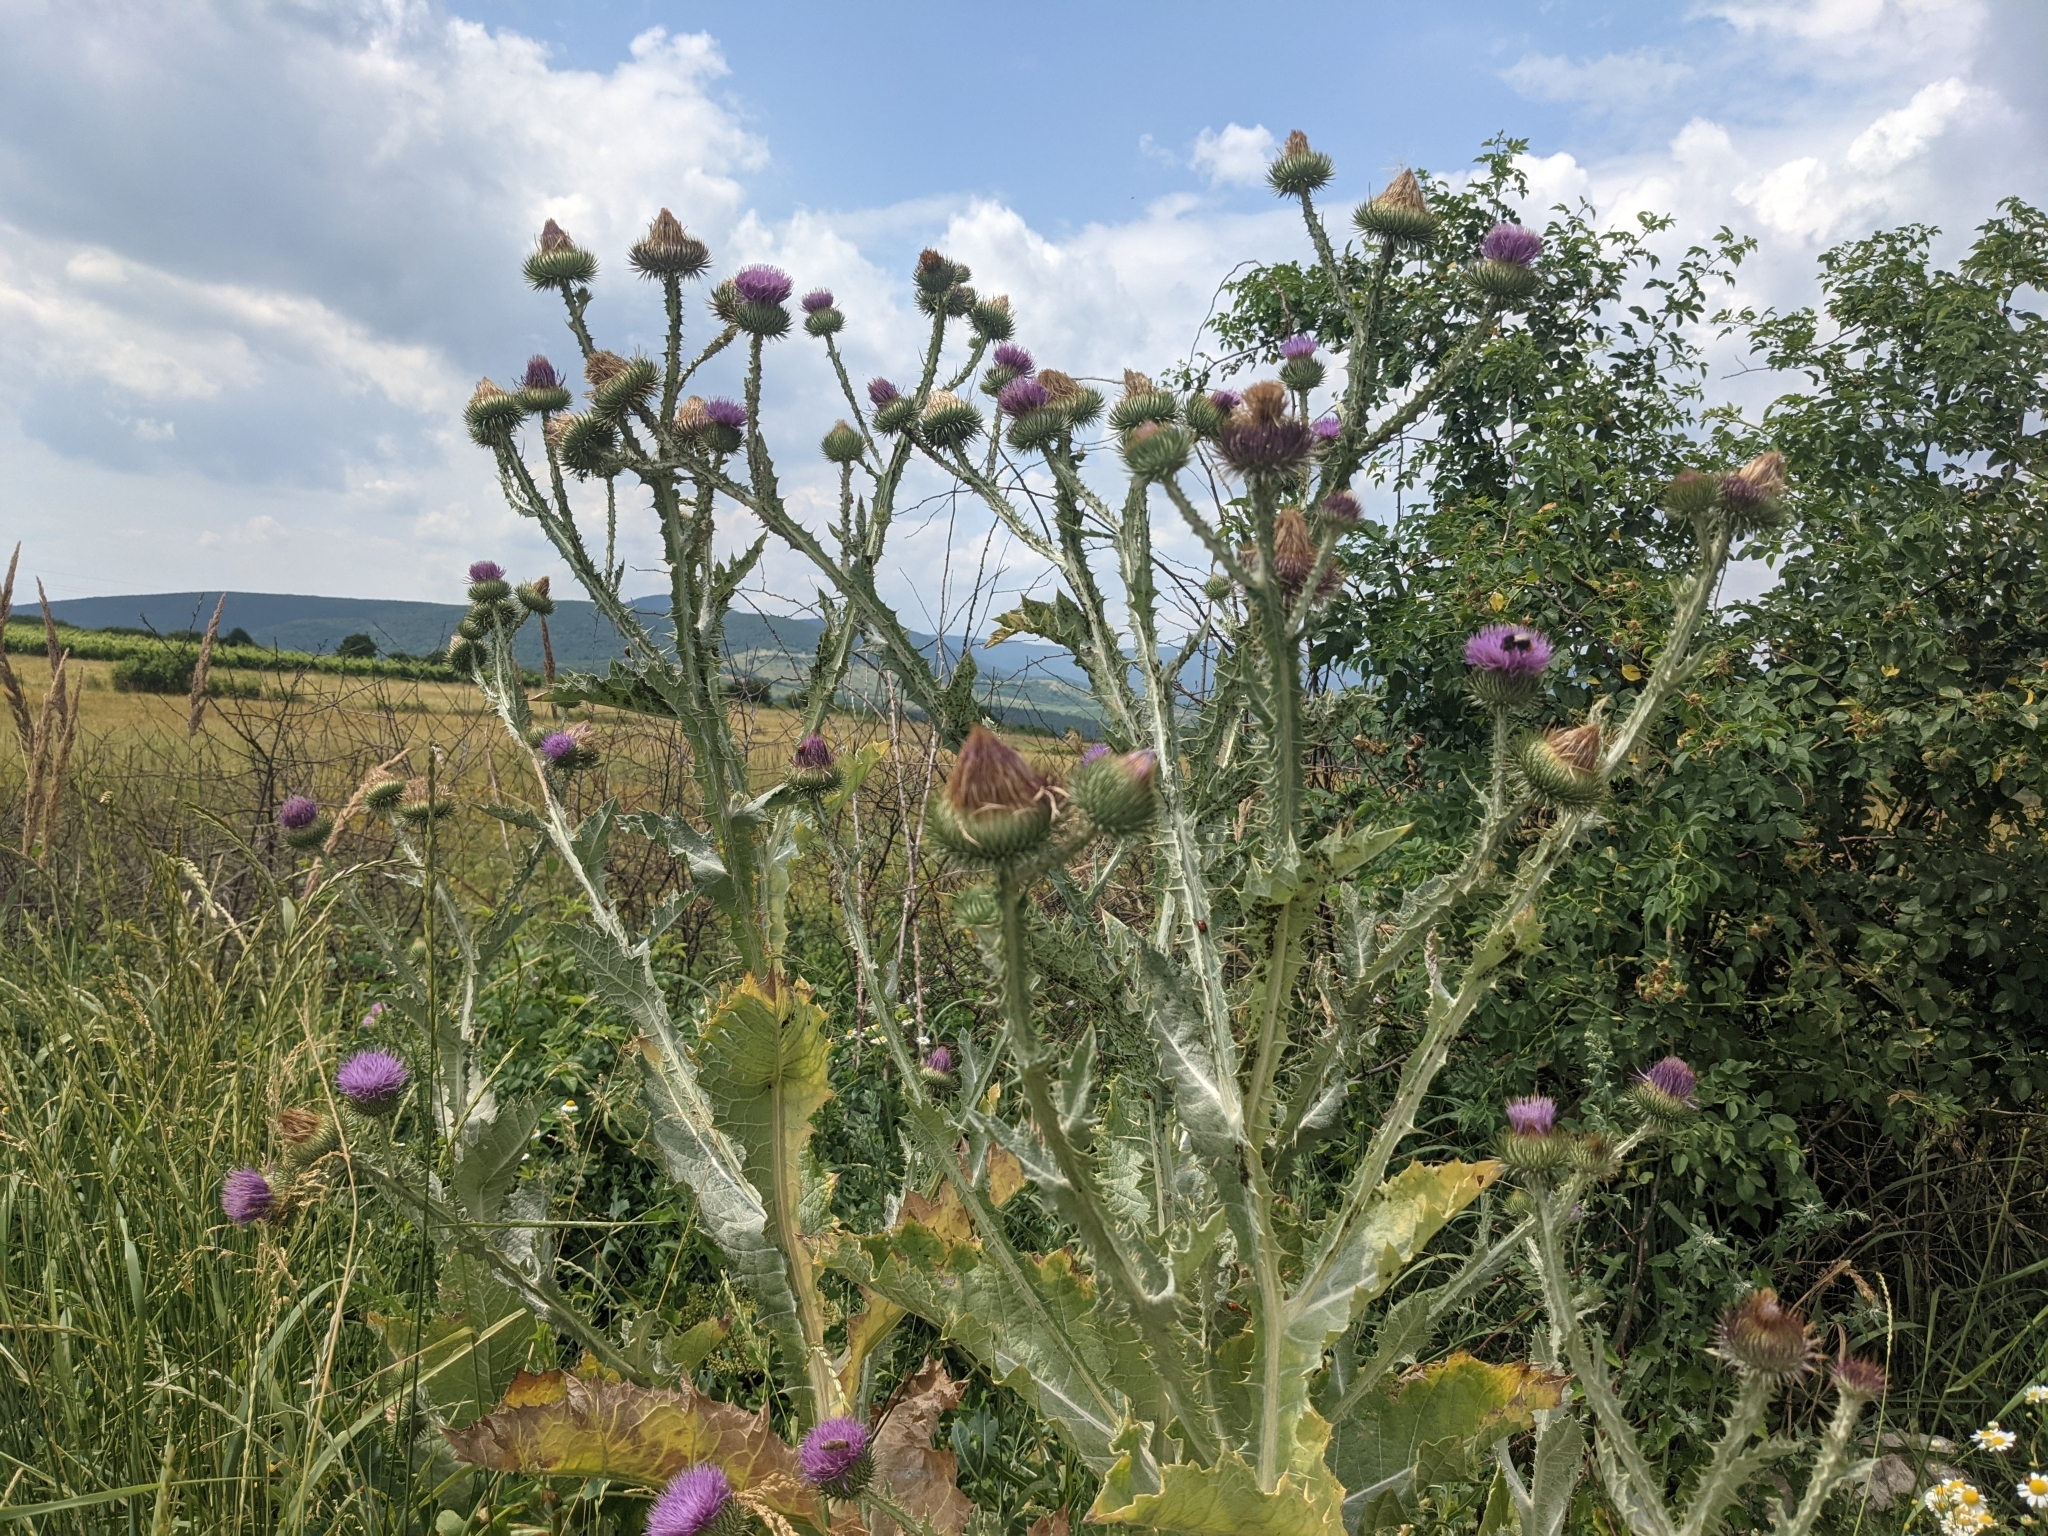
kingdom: Plantae
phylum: Tracheophyta
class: Magnoliopsida
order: Asterales
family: Asteraceae
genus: Onopordum
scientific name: Onopordum acanthium
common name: Scotch thistle
